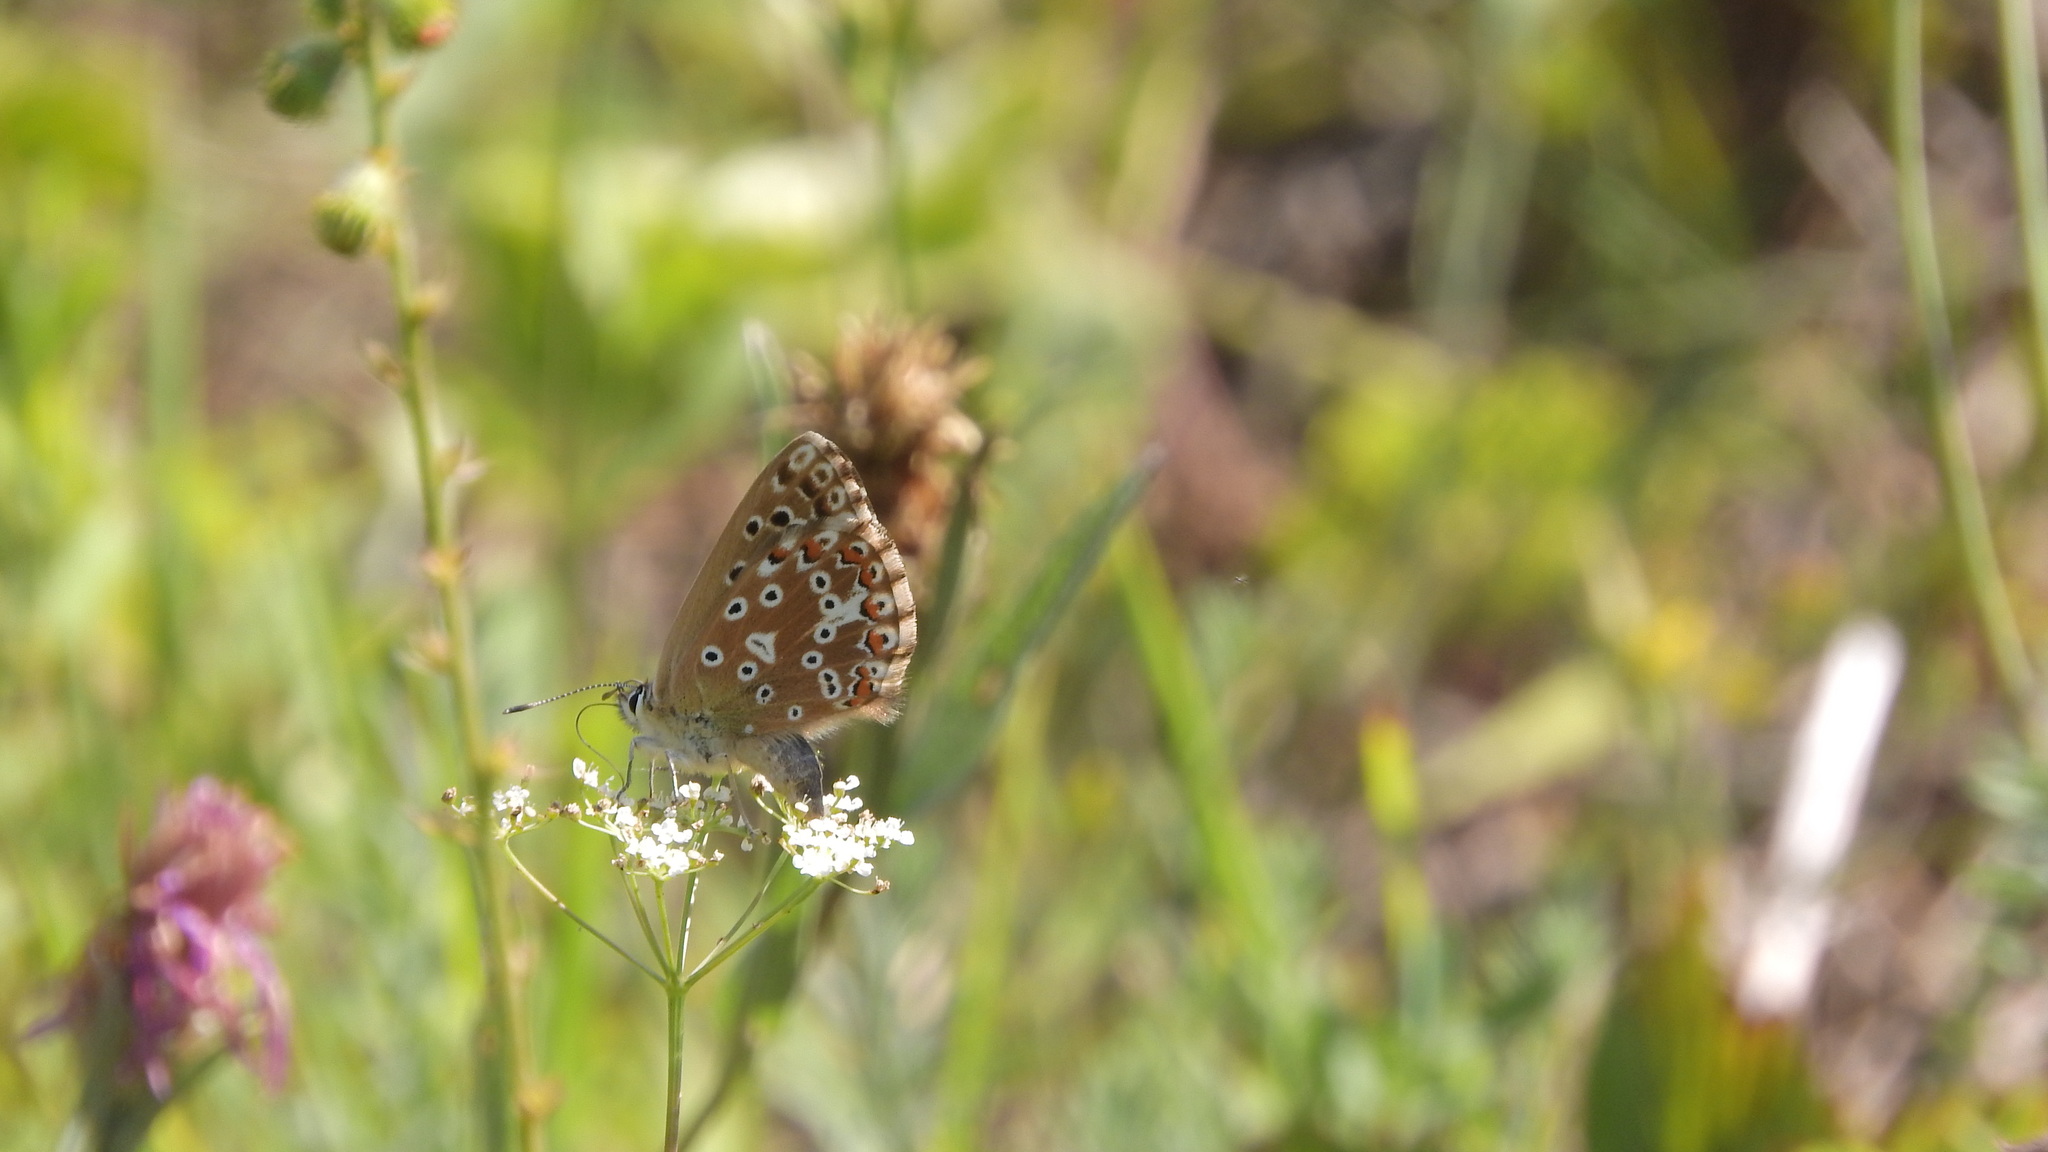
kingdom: Animalia
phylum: Arthropoda
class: Insecta
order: Lepidoptera
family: Lycaenidae
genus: Lysandra
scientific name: Lysandra coridon
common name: Chalkhill blue
